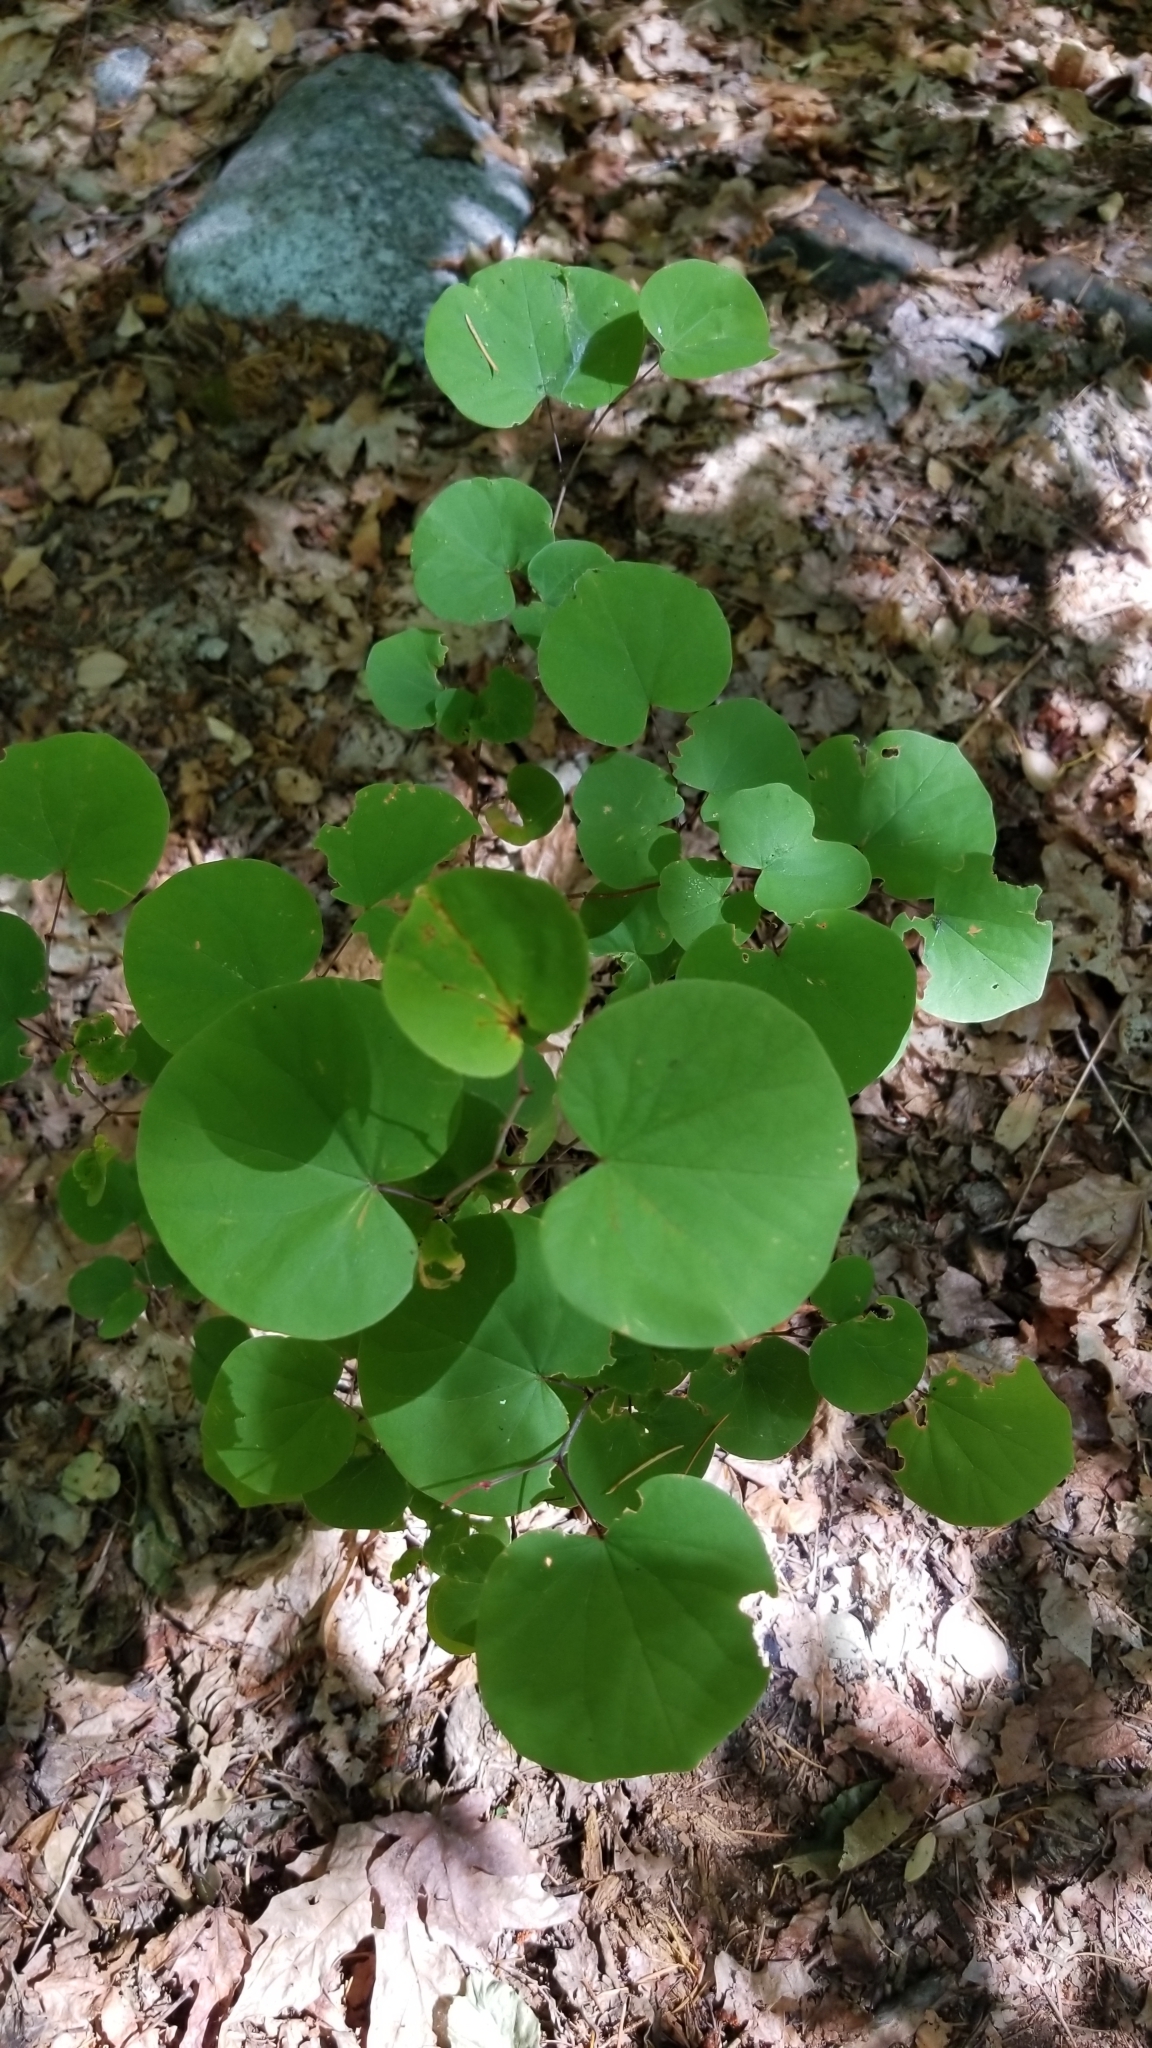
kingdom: Plantae
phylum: Tracheophyta
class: Magnoliopsida
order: Fabales
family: Fabaceae
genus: Cercis
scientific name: Cercis occidentalis
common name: California redbud
